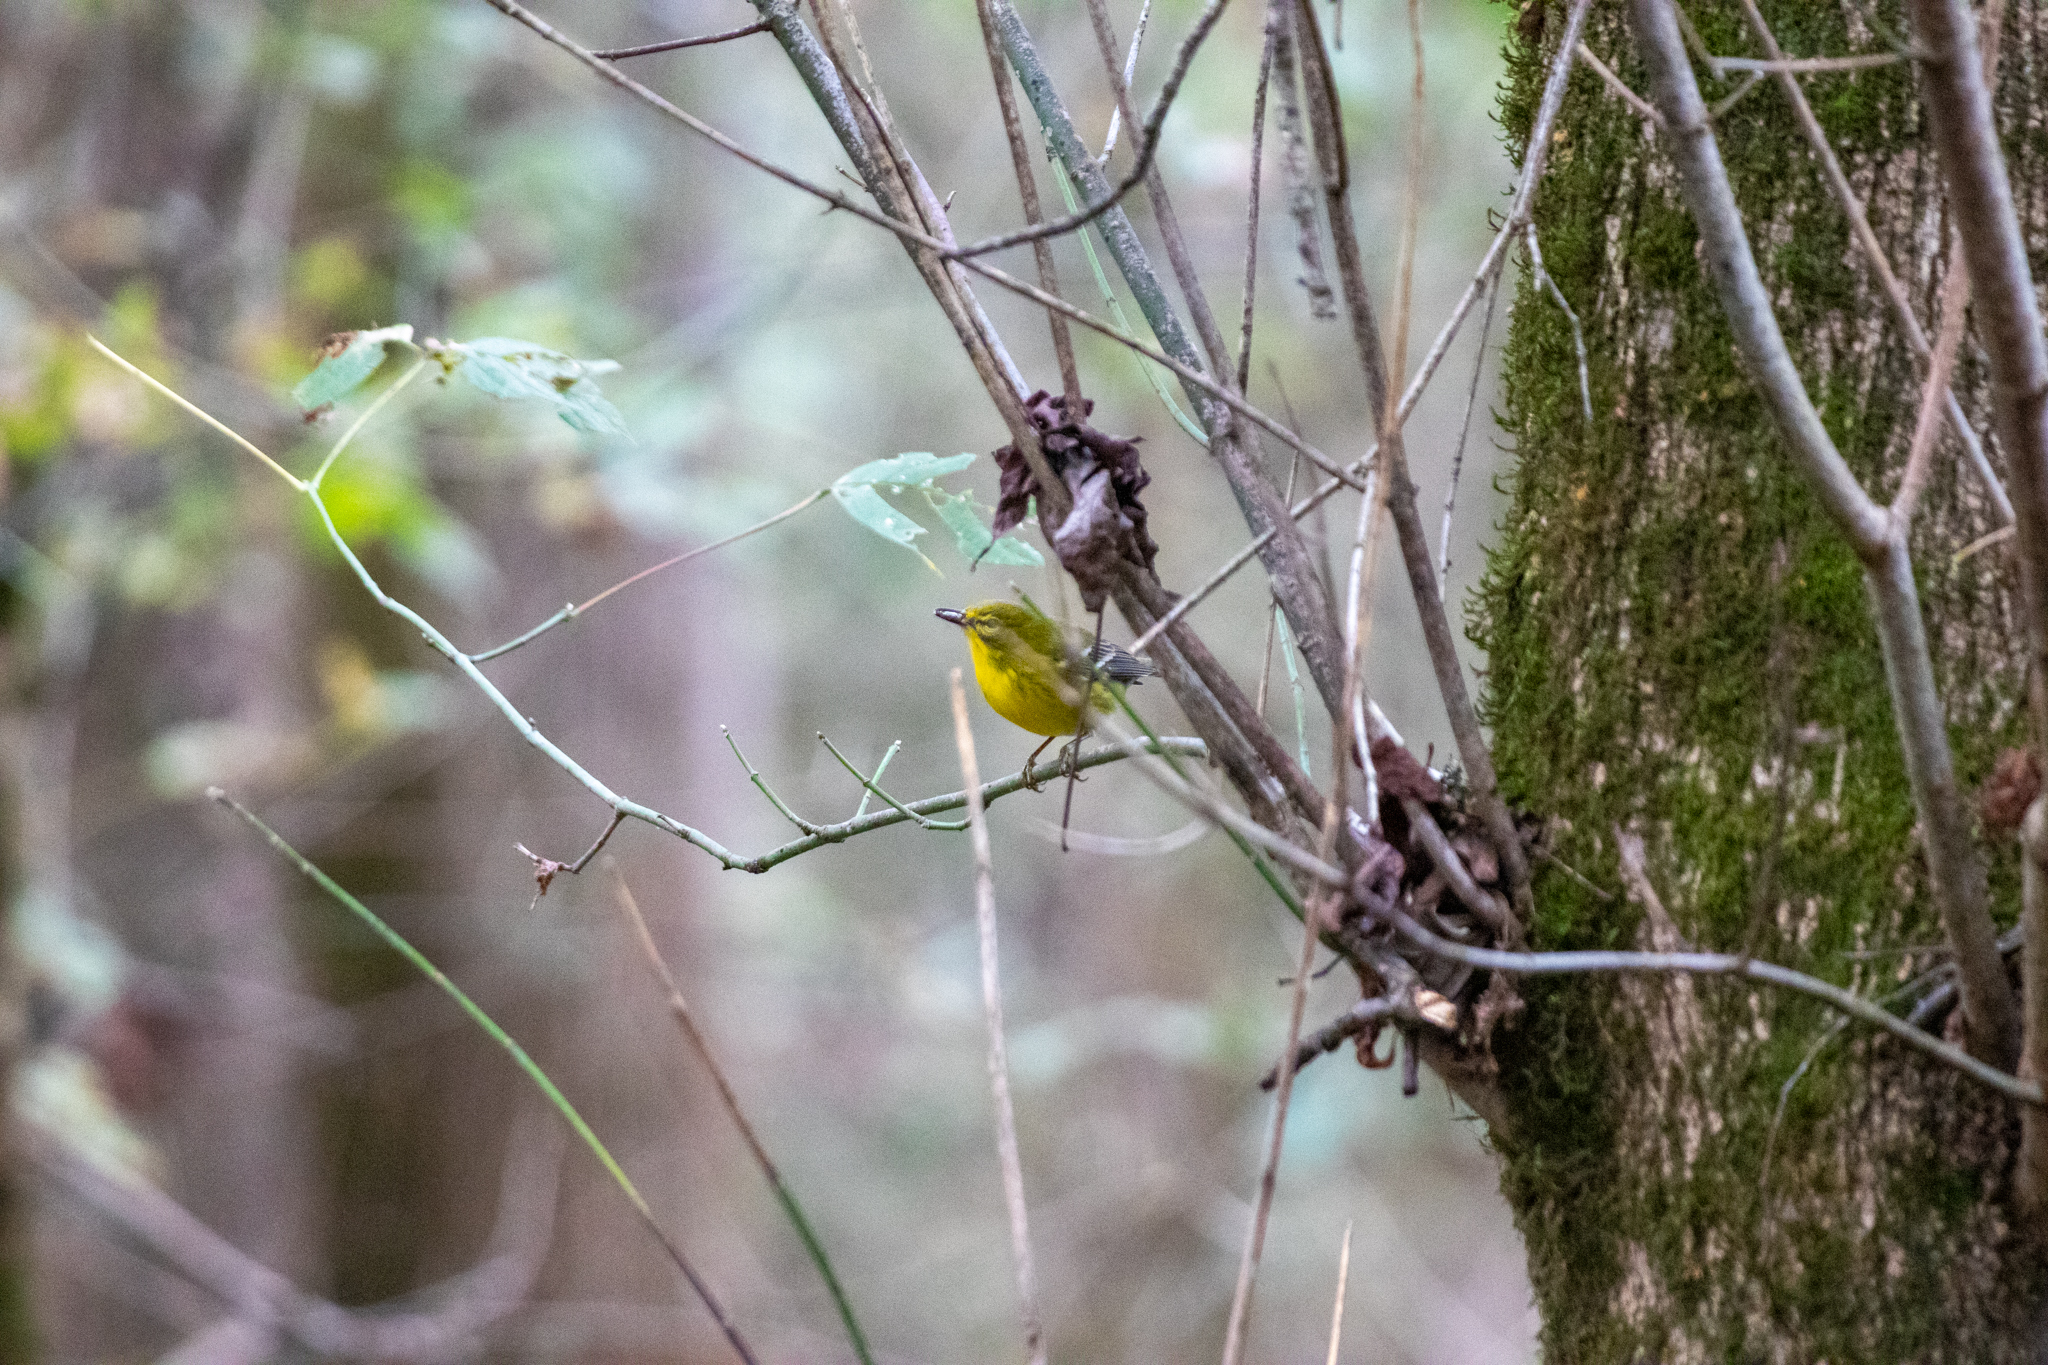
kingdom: Animalia
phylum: Chordata
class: Aves
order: Passeriformes
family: Parulidae
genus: Setophaga
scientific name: Setophaga pinus
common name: Pine warbler
